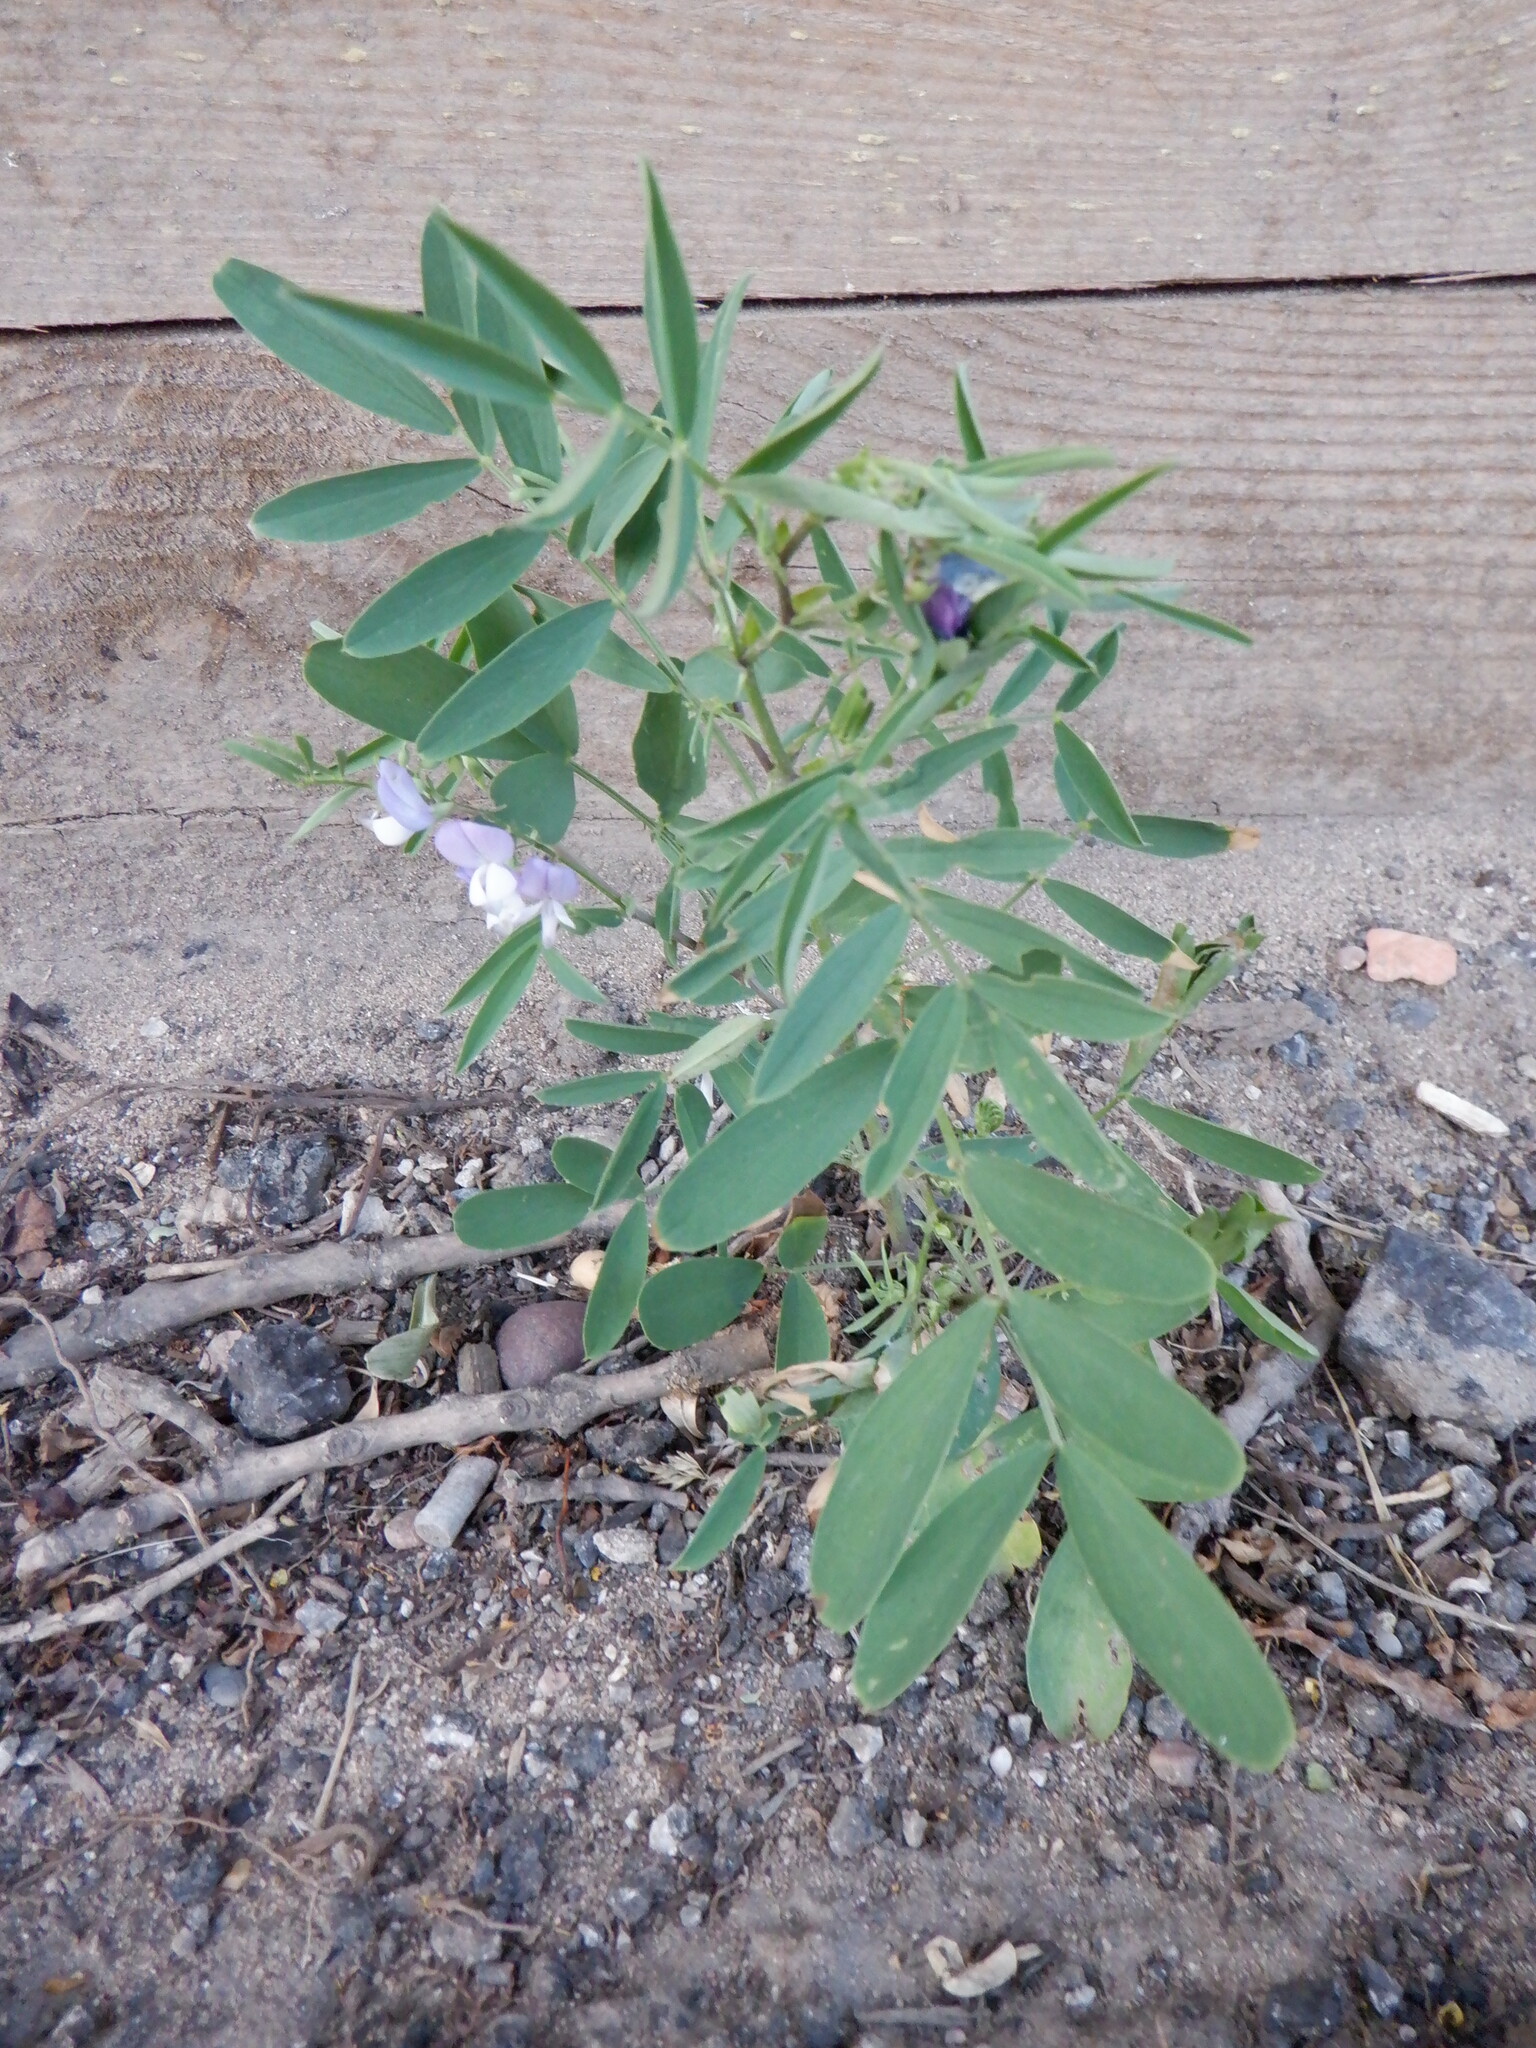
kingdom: Plantae
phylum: Tracheophyta
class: Magnoliopsida
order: Fabales
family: Fabaceae
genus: Galega
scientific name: Galega officinalis
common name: Goat's-rue
